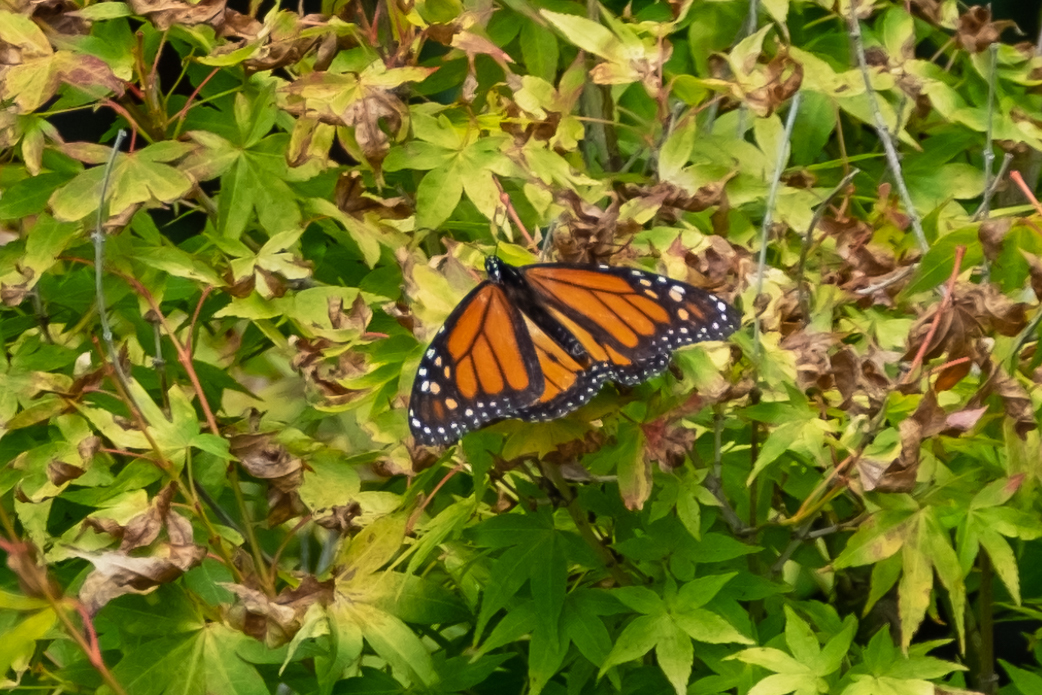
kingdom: Animalia
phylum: Arthropoda
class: Insecta
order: Lepidoptera
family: Nymphalidae
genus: Danaus
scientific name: Danaus plexippus
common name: Monarch
